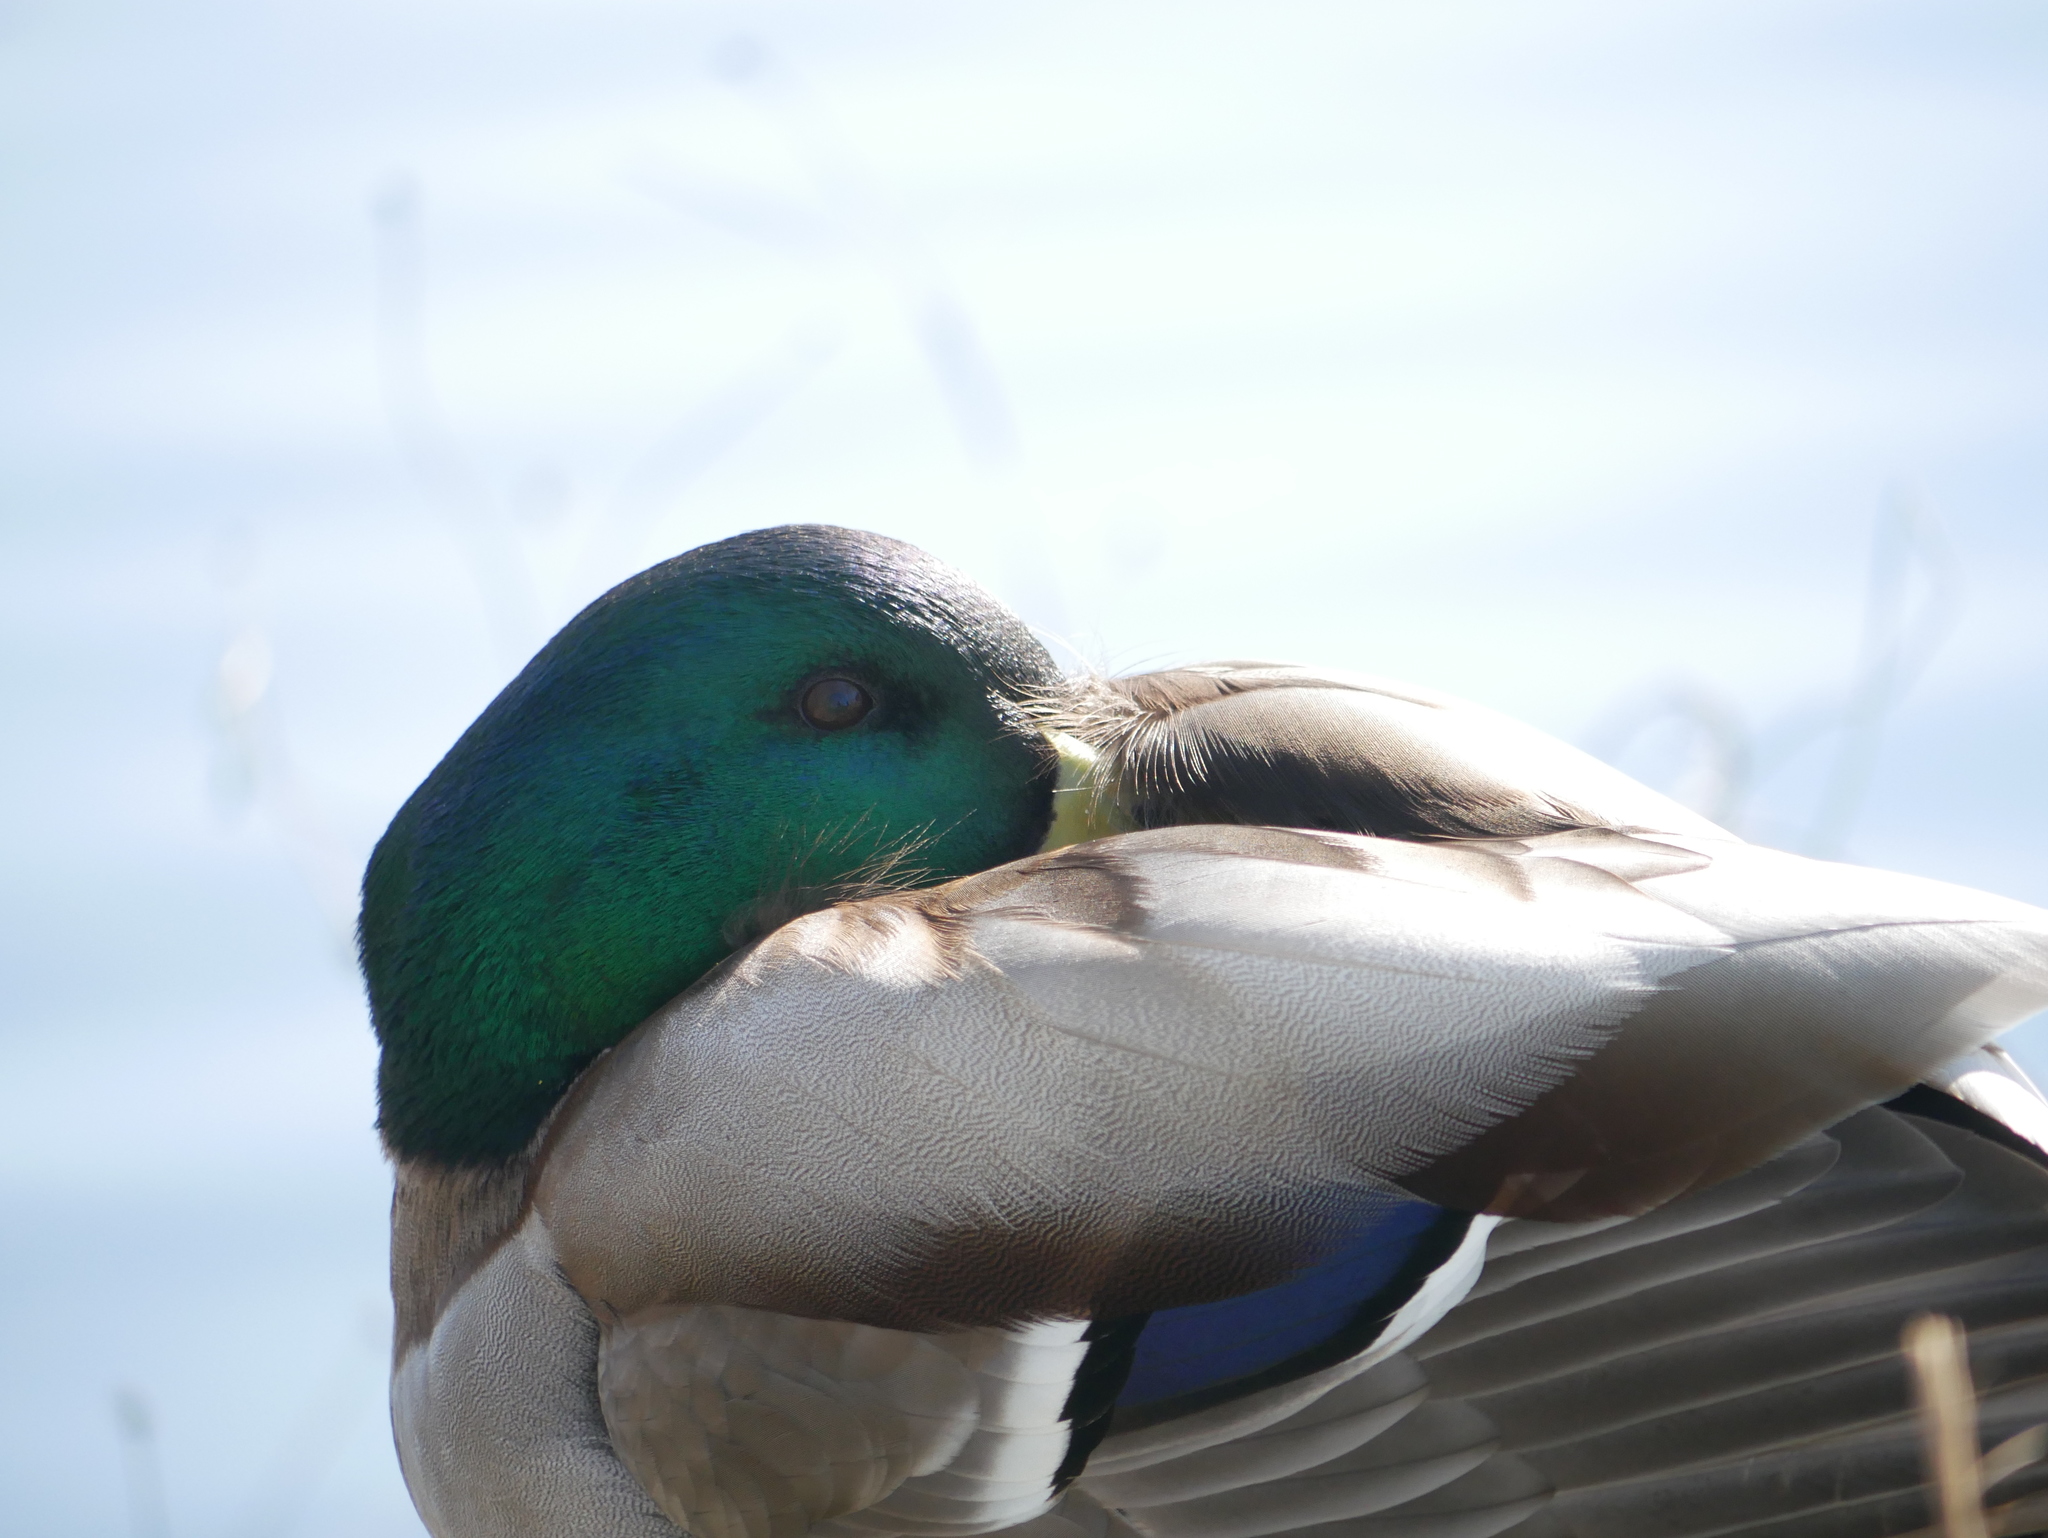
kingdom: Animalia
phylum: Chordata
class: Aves
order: Anseriformes
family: Anatidae
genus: Anas
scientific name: Anas platyrhynchos
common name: Mallard
